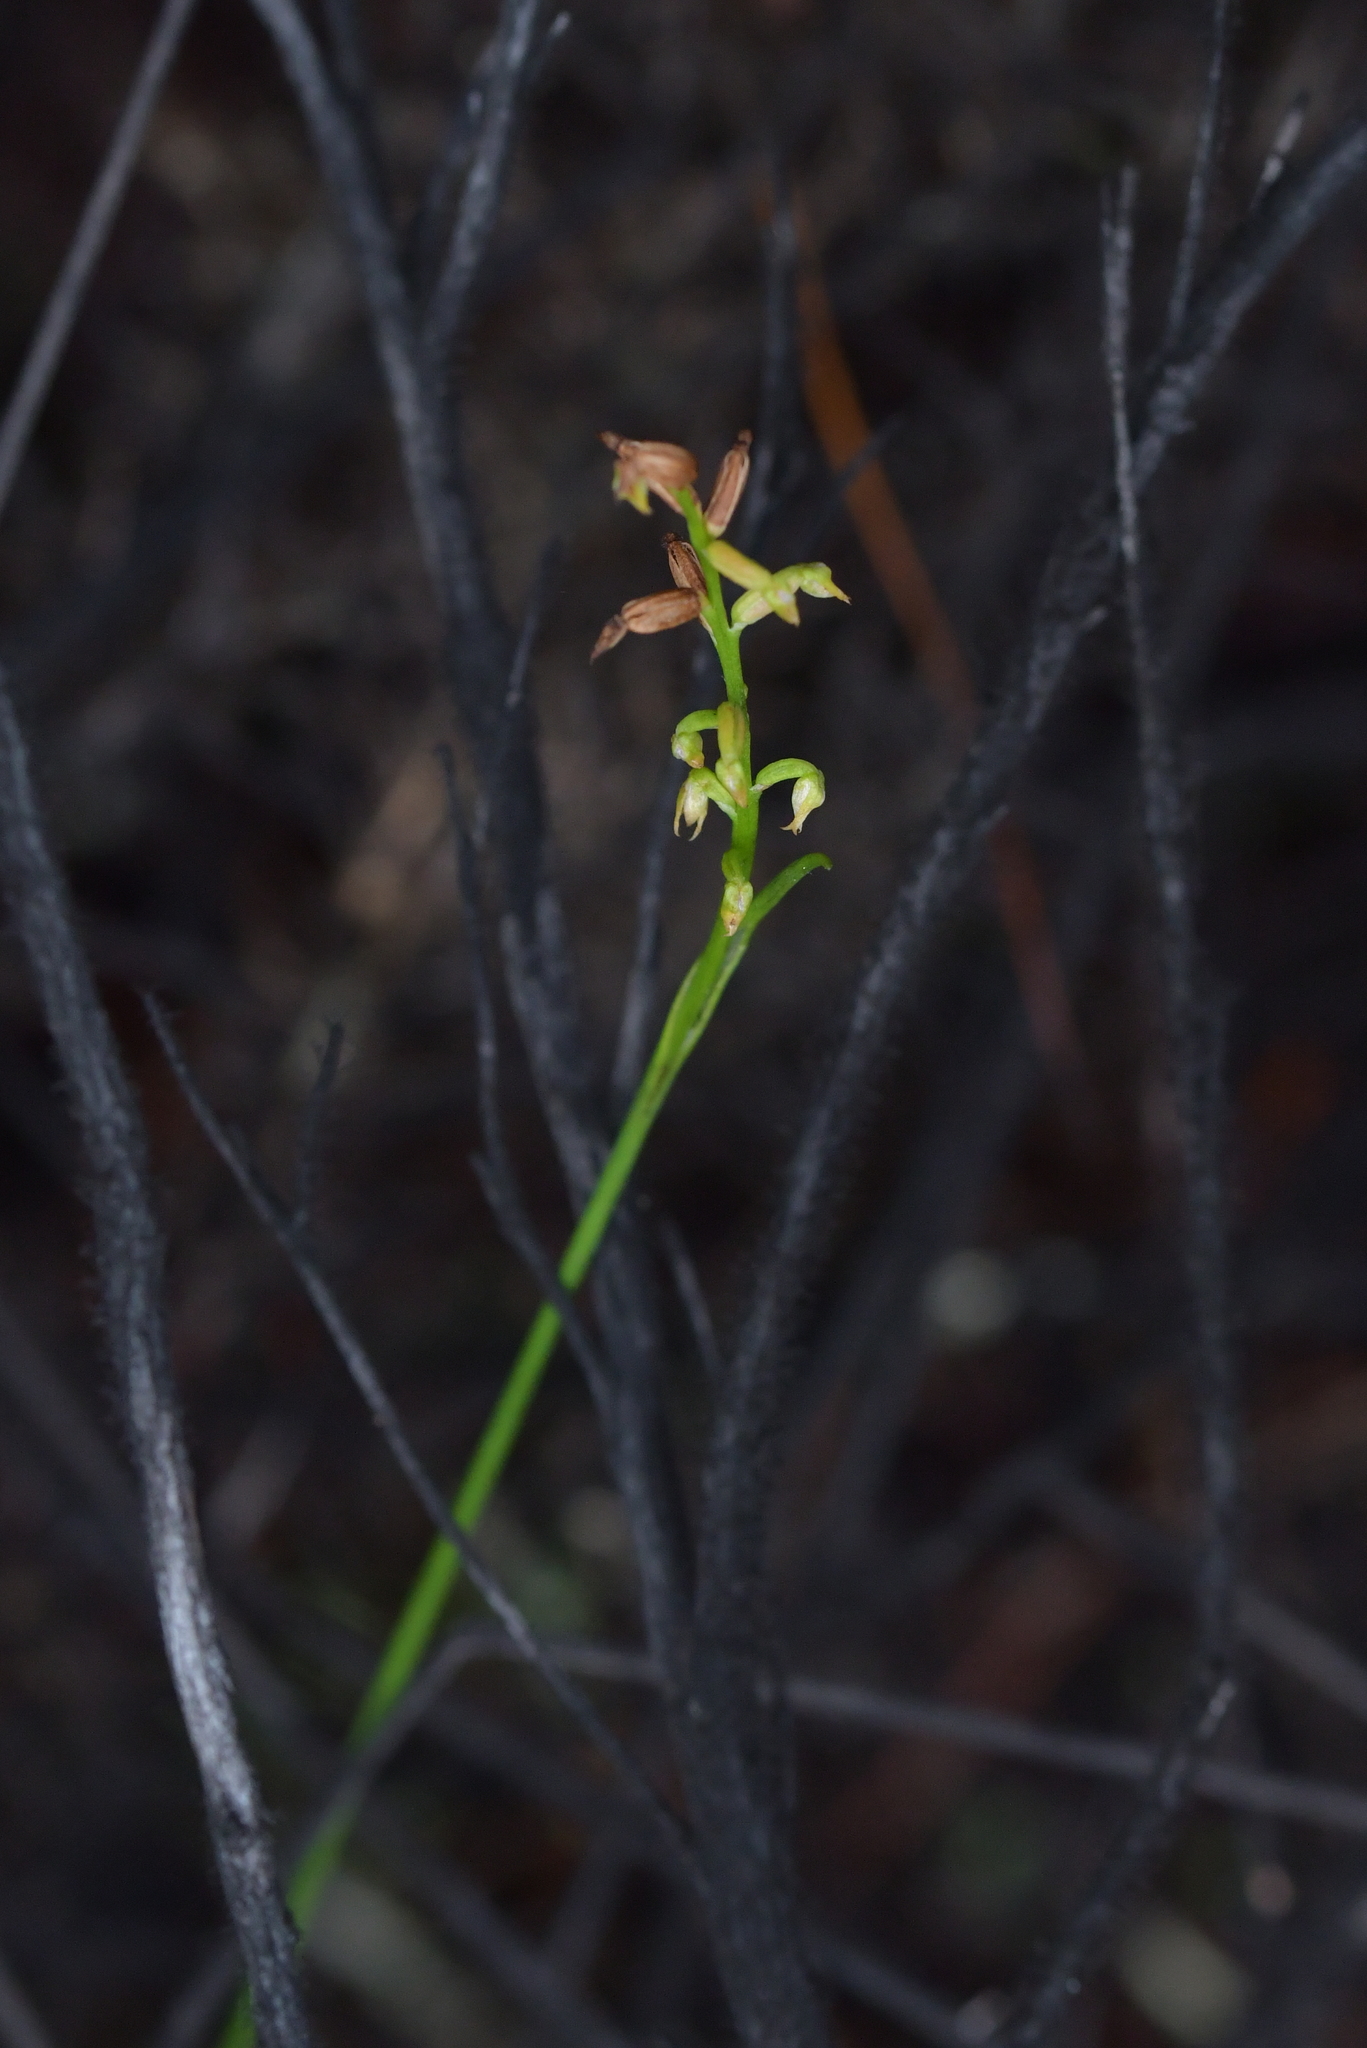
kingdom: Plantae
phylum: Tracheophyta
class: Liliopsida
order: Asparagales
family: Orchidaceae
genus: Genoplesium
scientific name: Genoplesium pumilum
